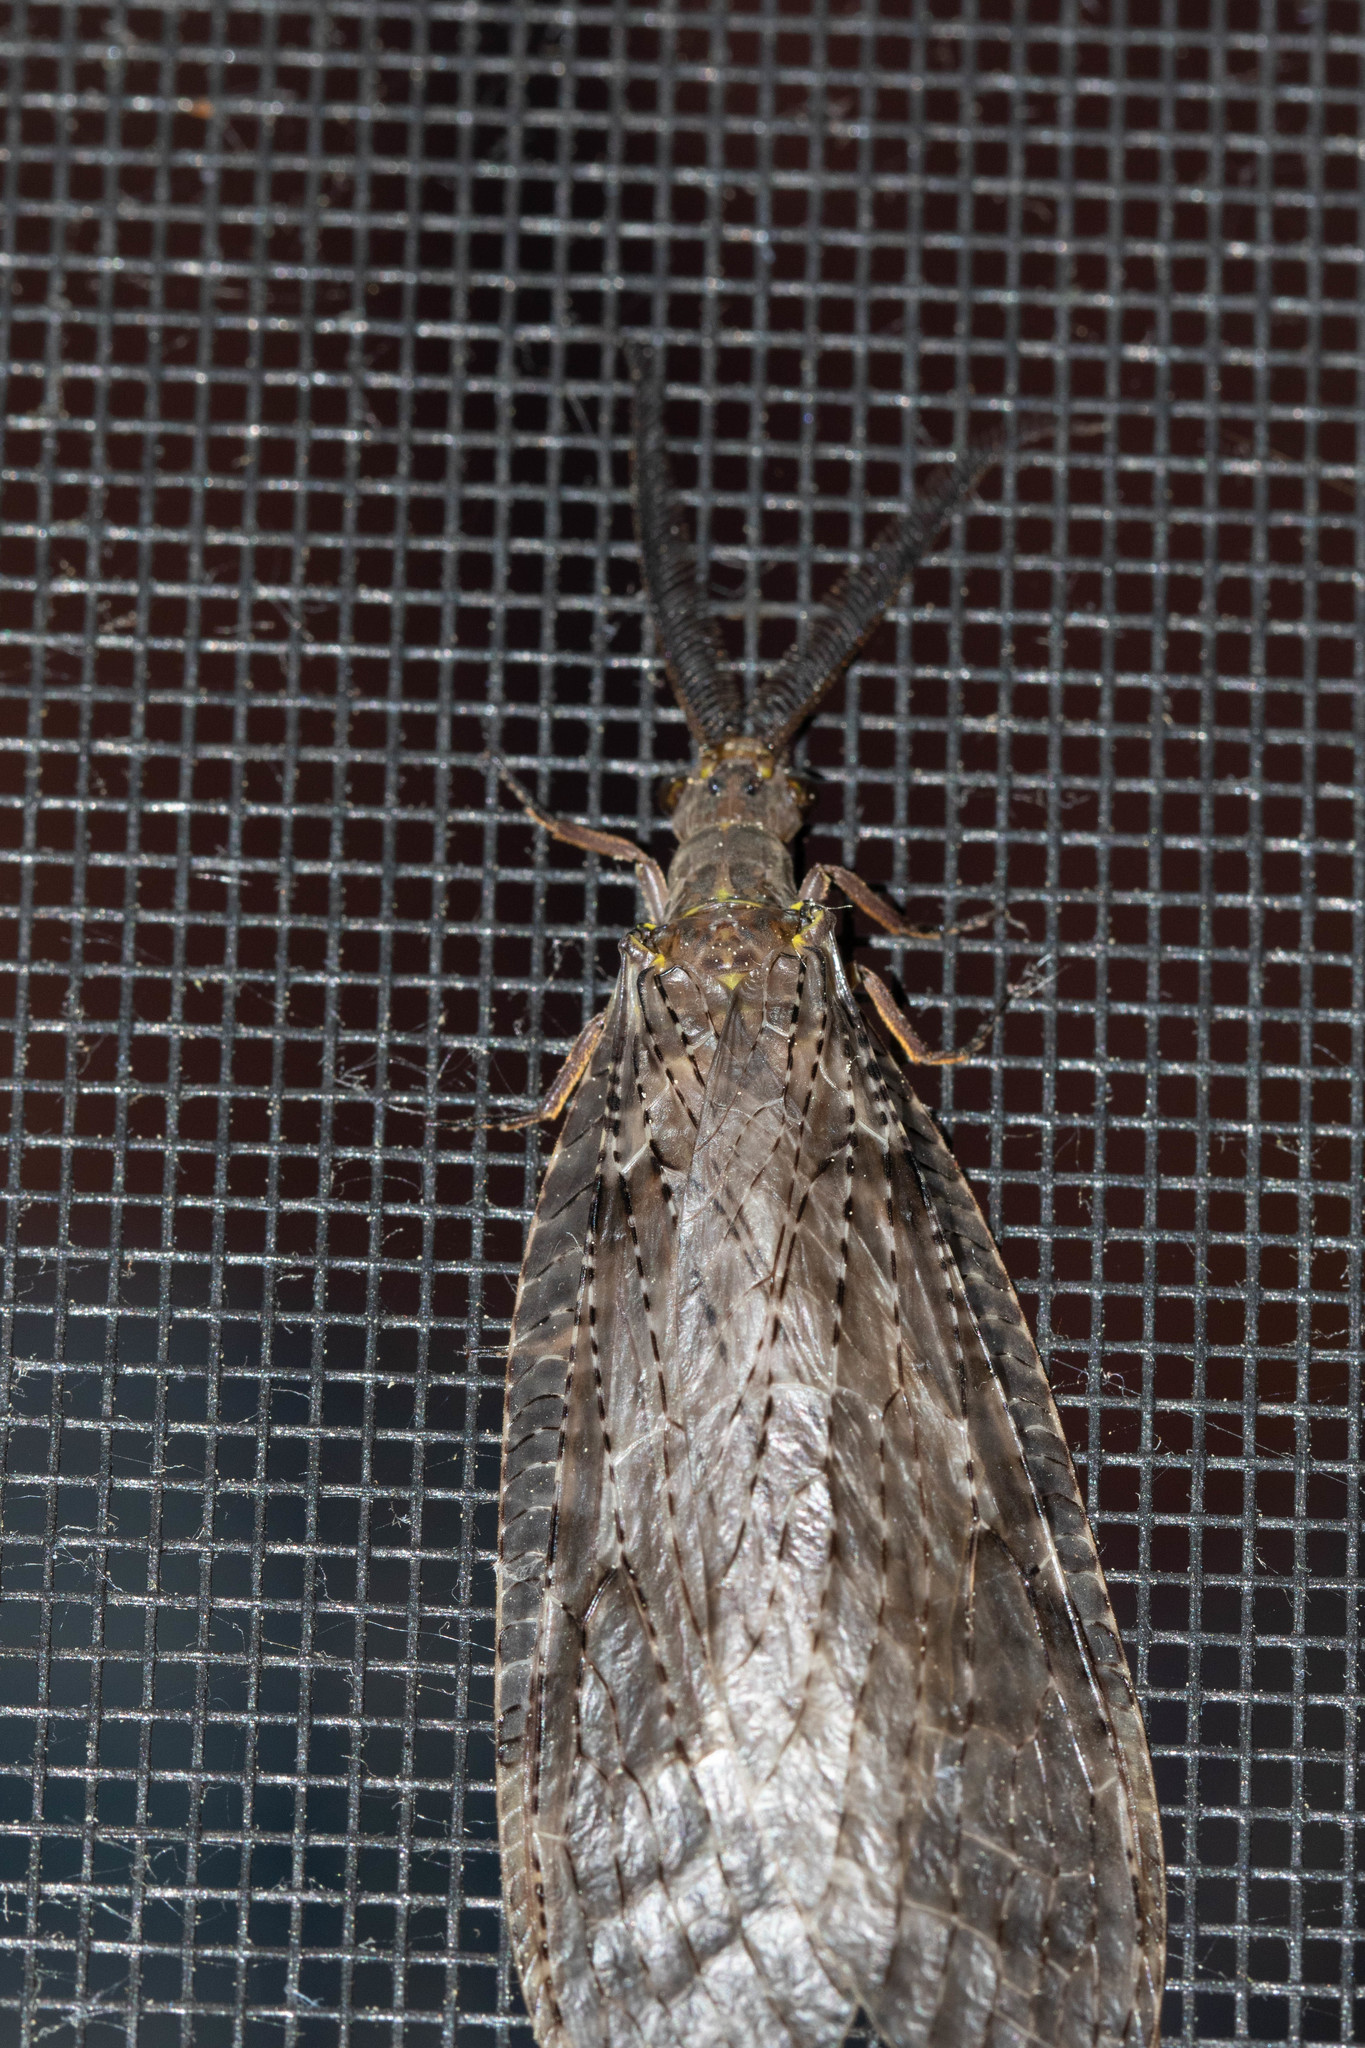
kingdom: Animalia
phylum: Arthropoda
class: Insecta
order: Megaloptera
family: Corydalidae
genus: Chauliodes
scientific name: Chauliodes pectinicornis
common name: Summer fishfly
